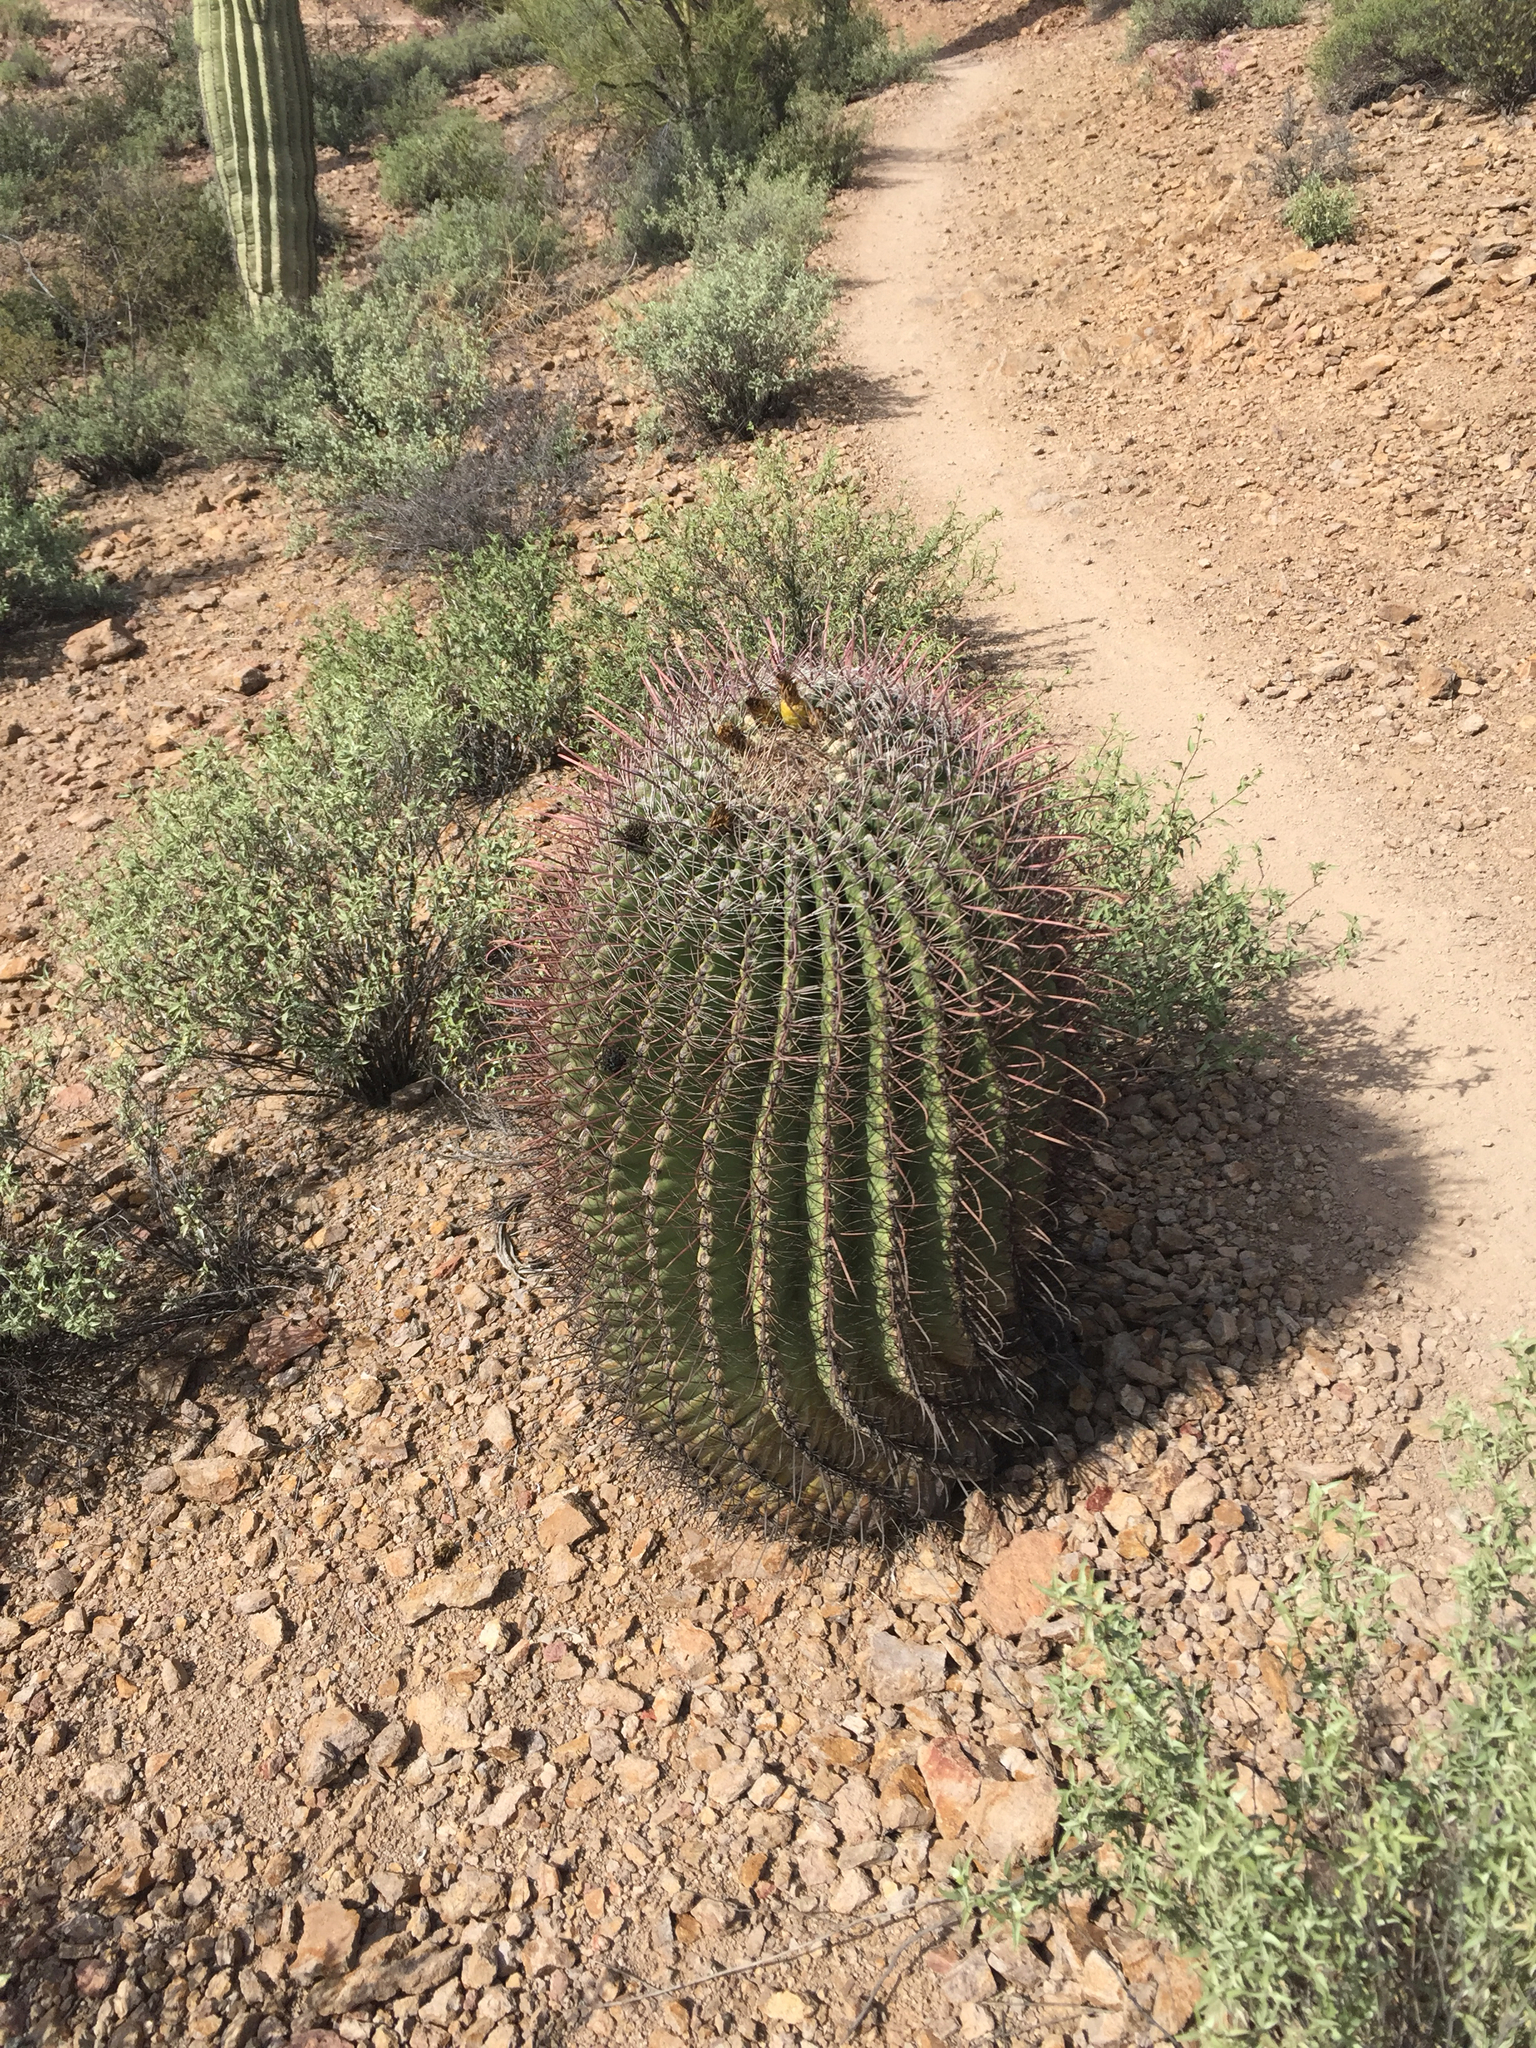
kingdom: Plantae
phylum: Tracheophyta
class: Magnoliopsida
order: Caryophyllales
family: Cactaceae
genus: Ferocactus
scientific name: Ferocactus wislizeni
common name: Candy barrel cactus
